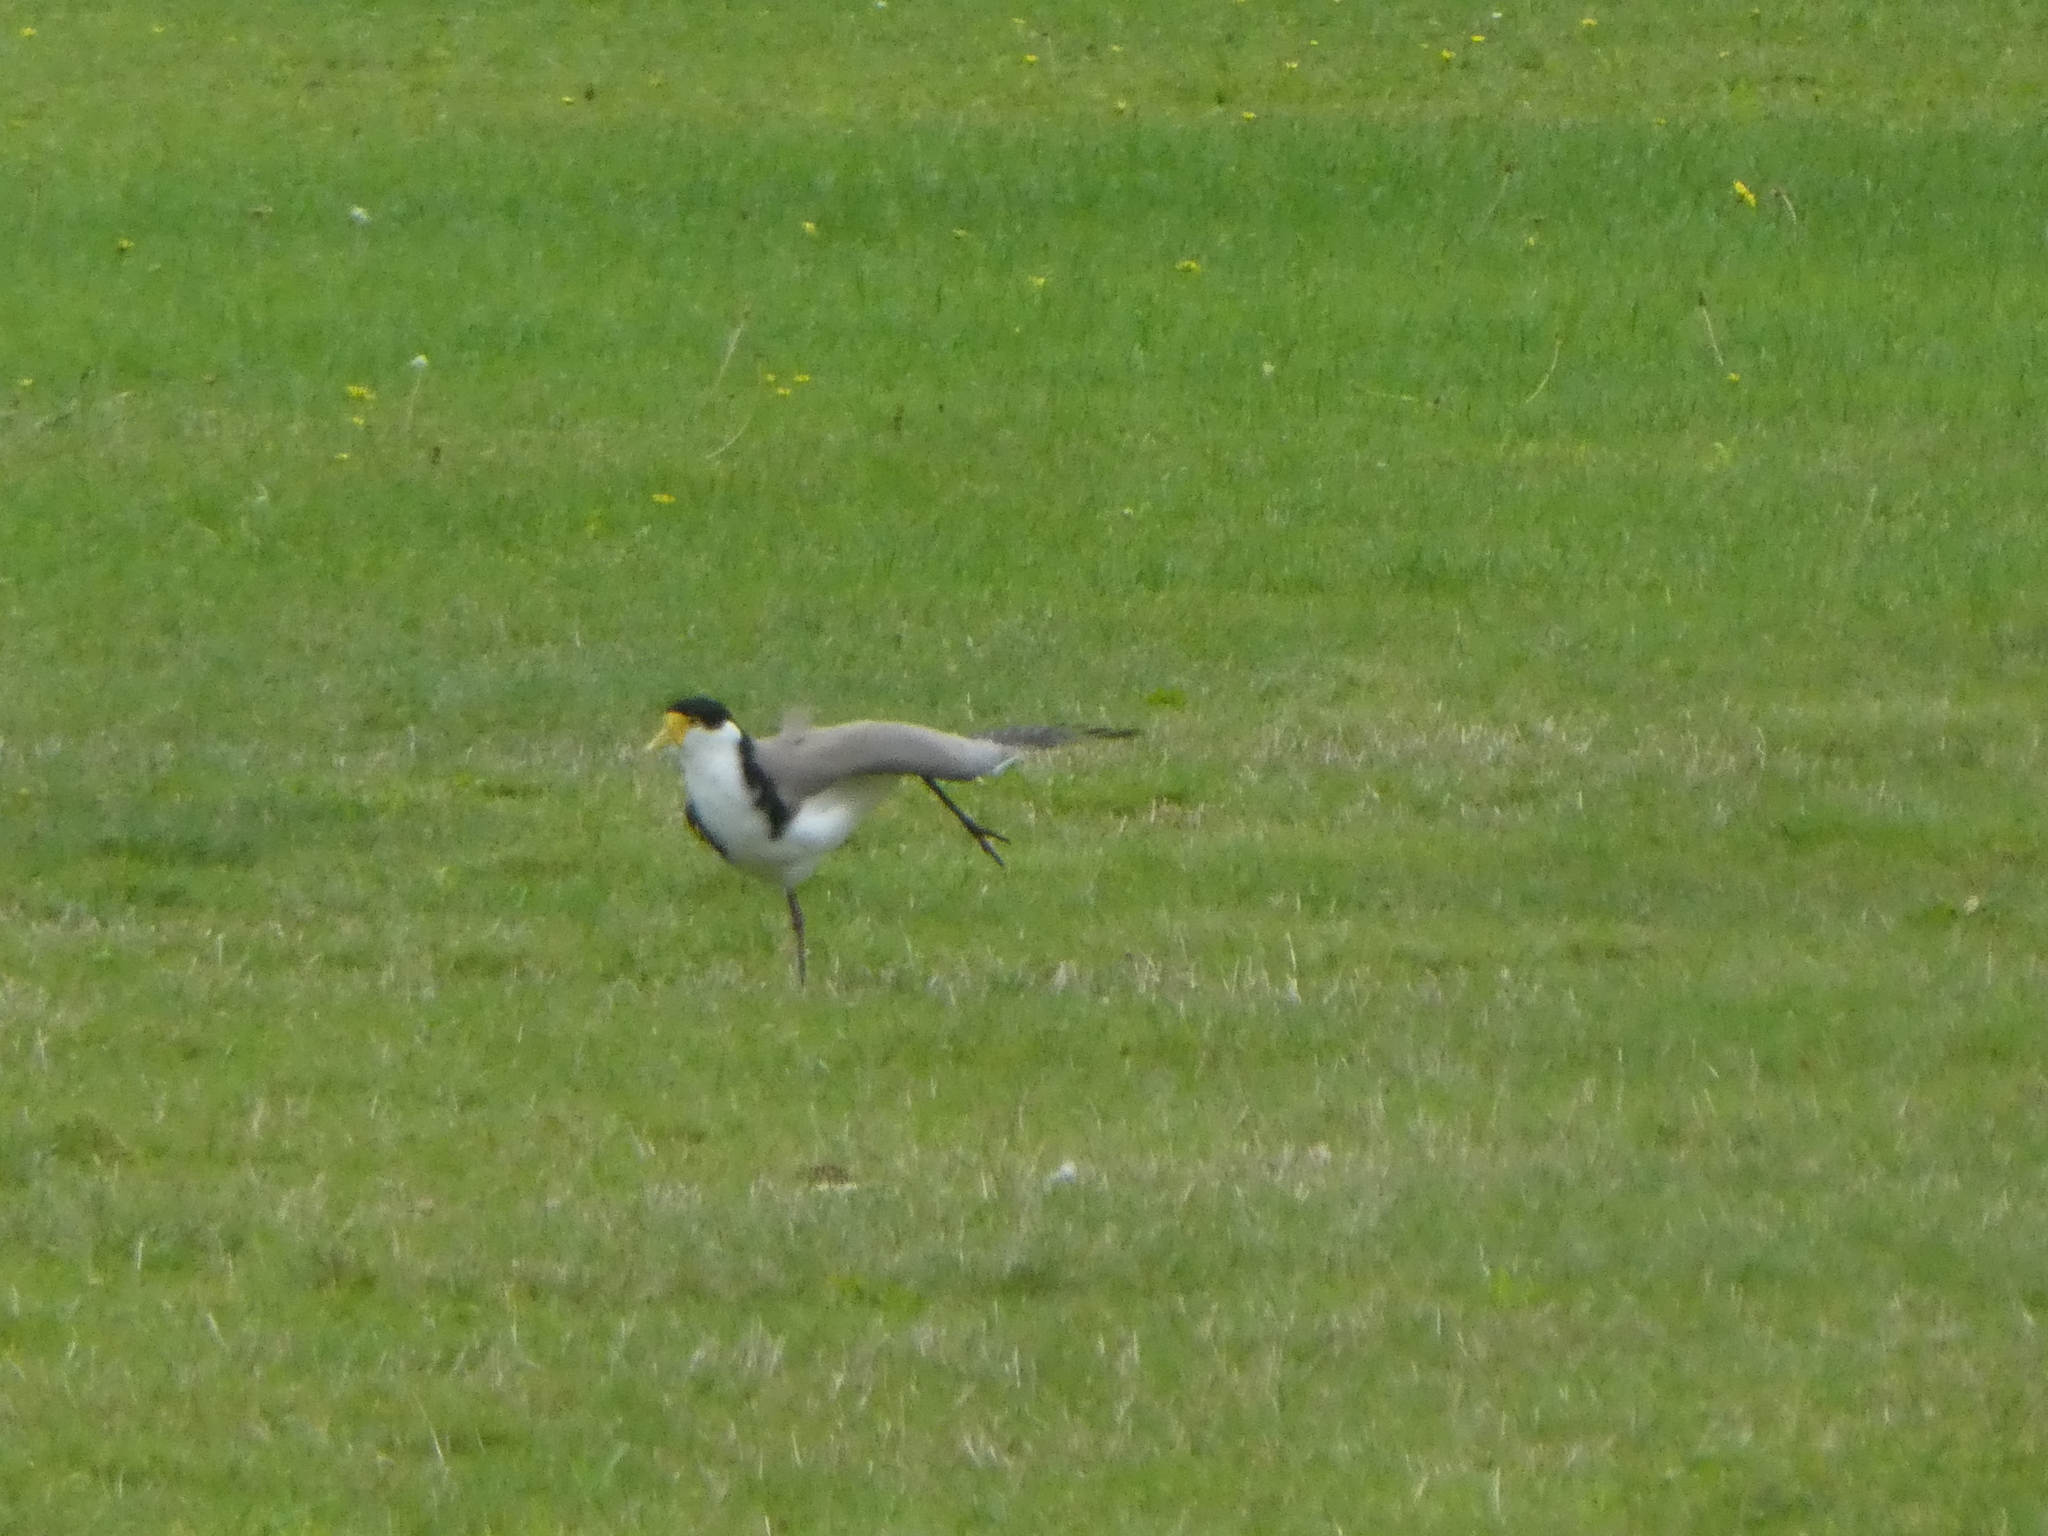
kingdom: Animalia
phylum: Chordata
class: Aves
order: Charadriiformes
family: Charadriidae
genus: Vanellus
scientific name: Vanellus miles
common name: Masked lapwing
